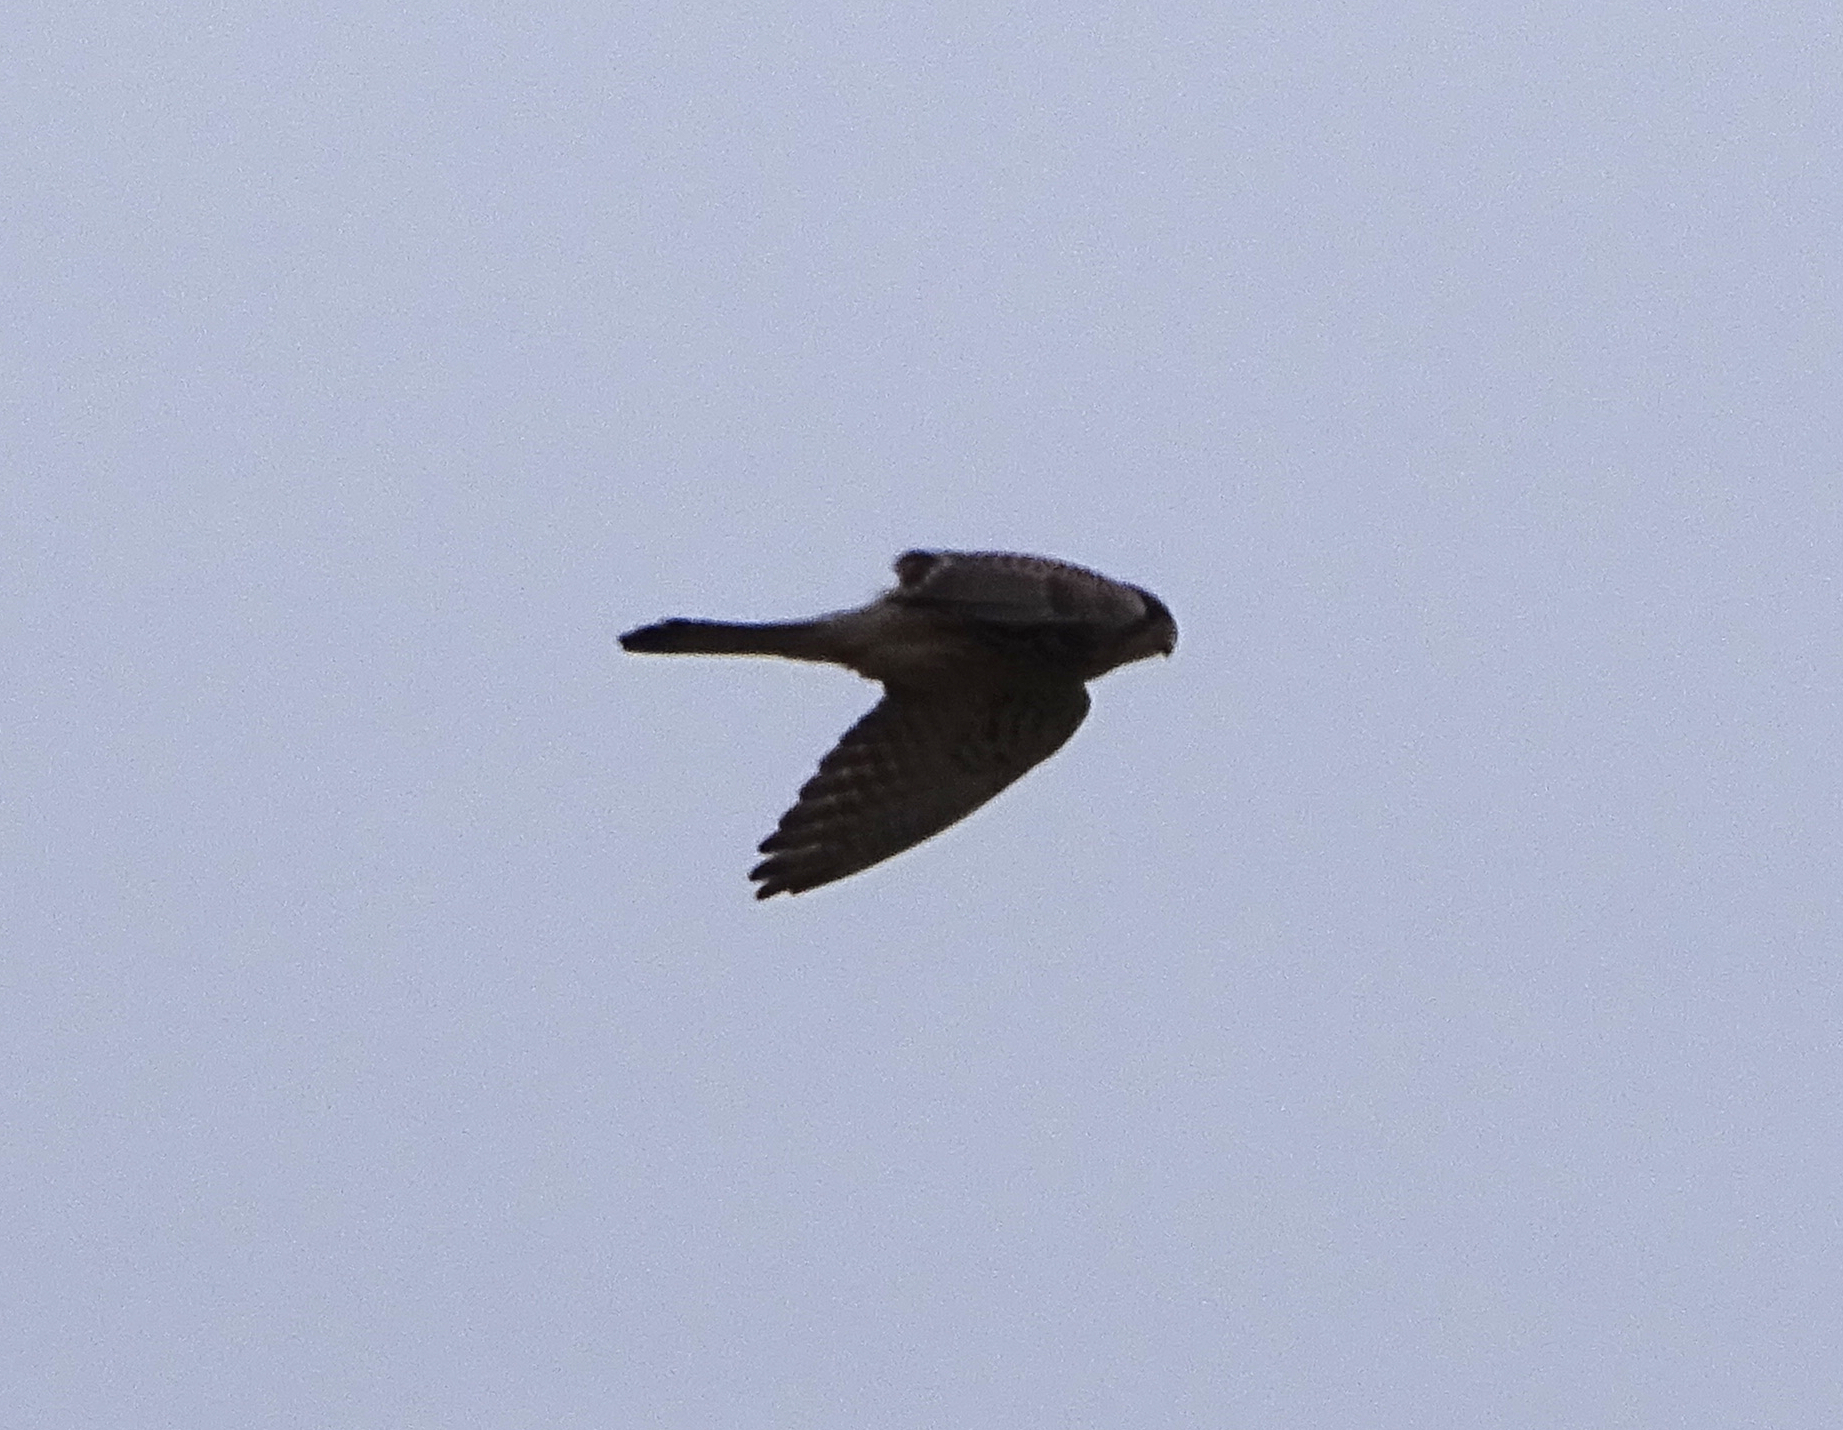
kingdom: Animalia
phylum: Chordata
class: Aves
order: Falconiformes
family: Falconidae
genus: Falco
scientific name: Falco tinnunculus
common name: Common kestrel
